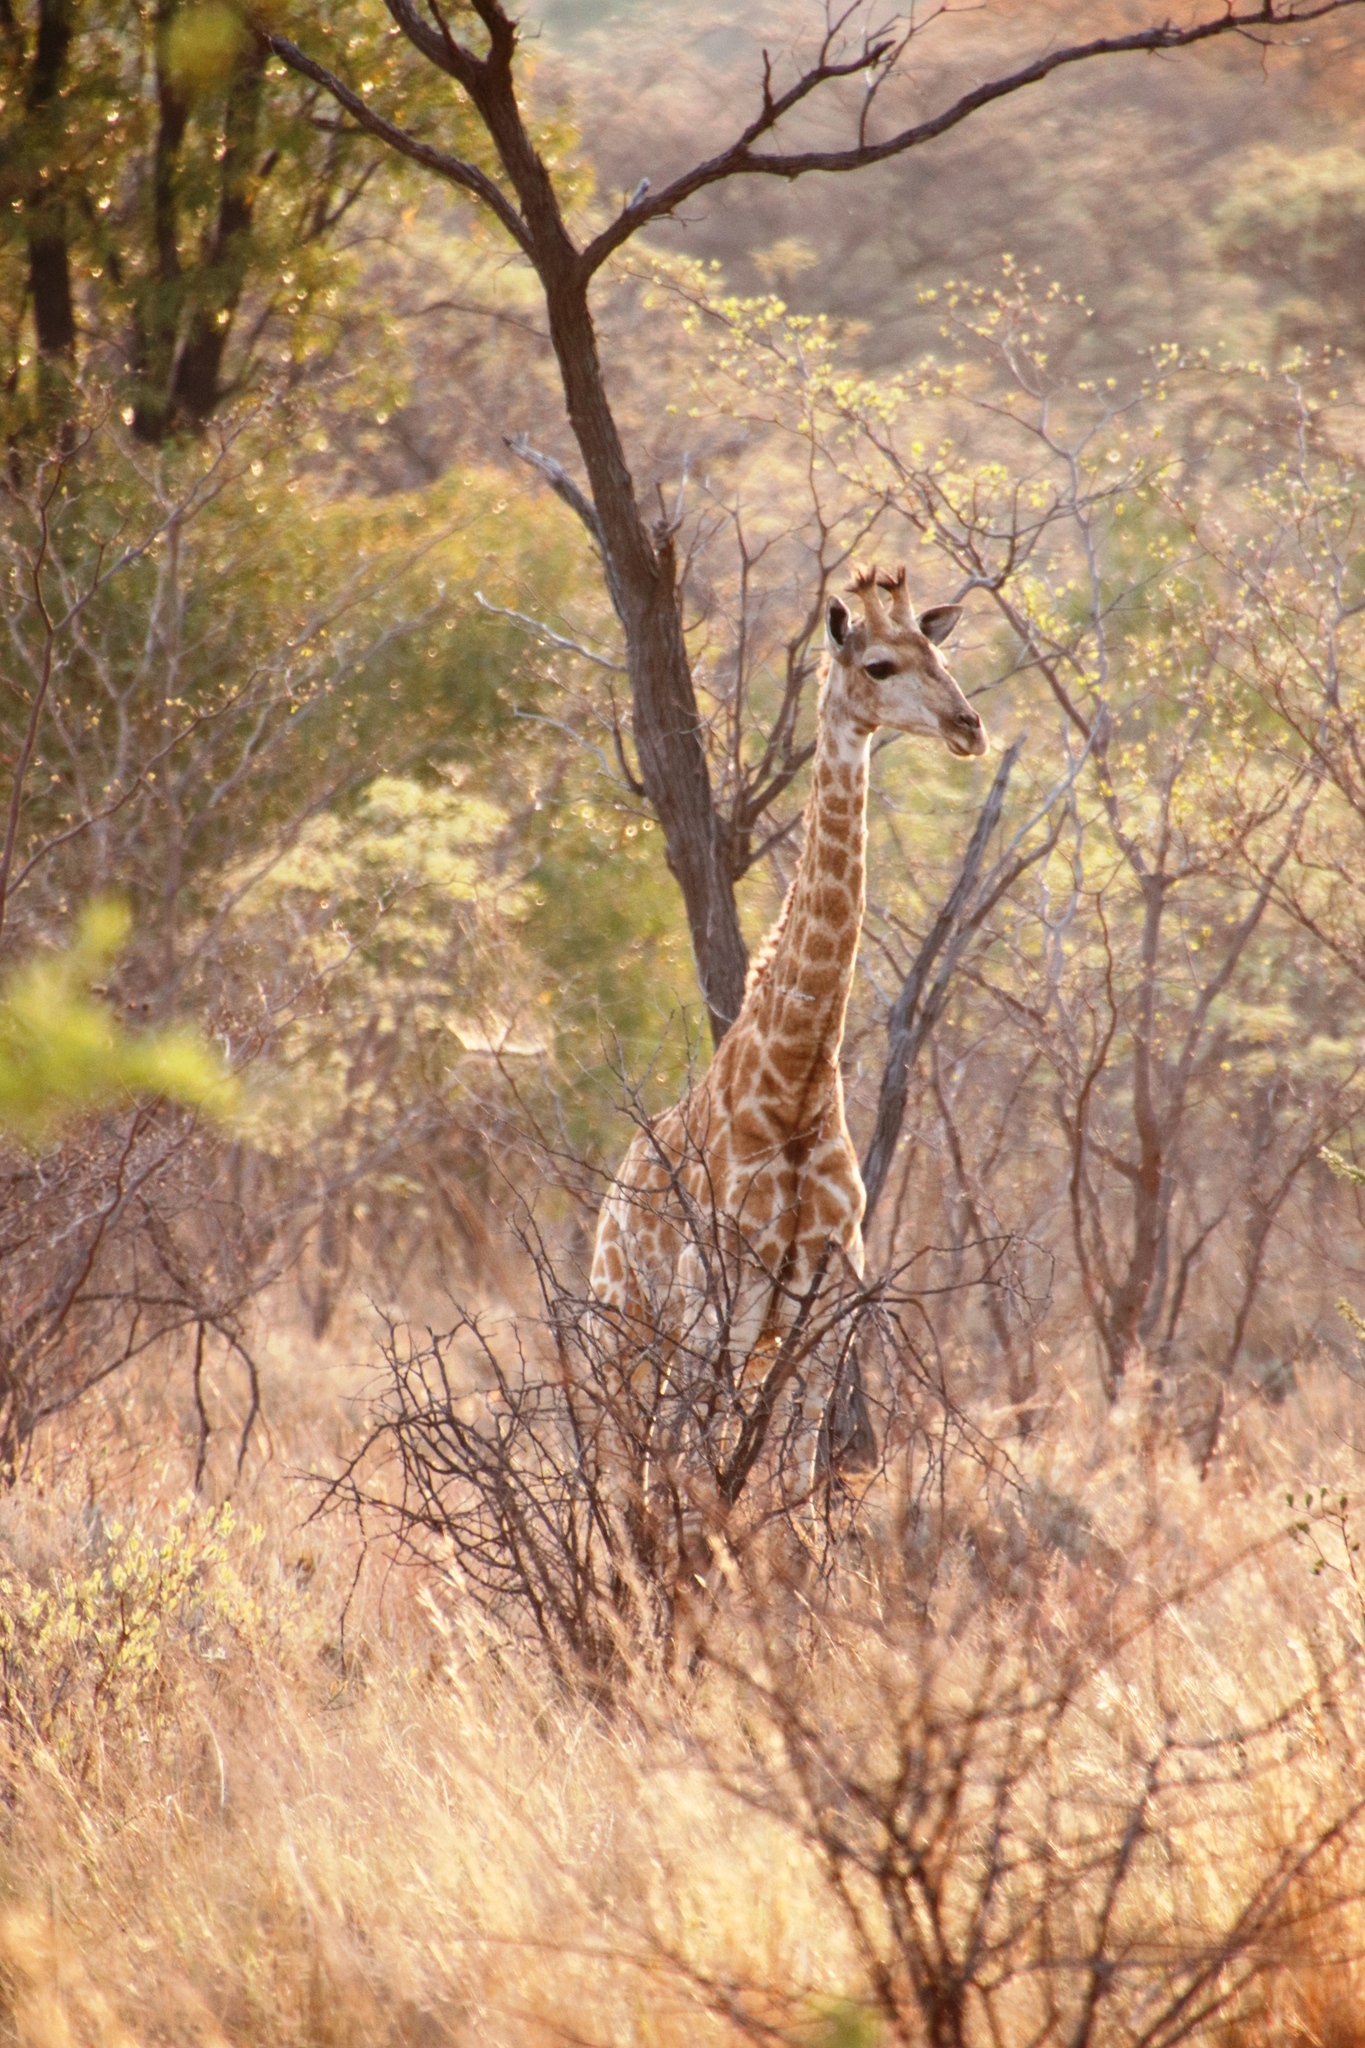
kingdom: Animalia
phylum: Chordata
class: Mammalia
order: Artiodactyla
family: Giraffidae
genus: Giraffa
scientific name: Giraffa giraffa
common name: Southern giraffe
